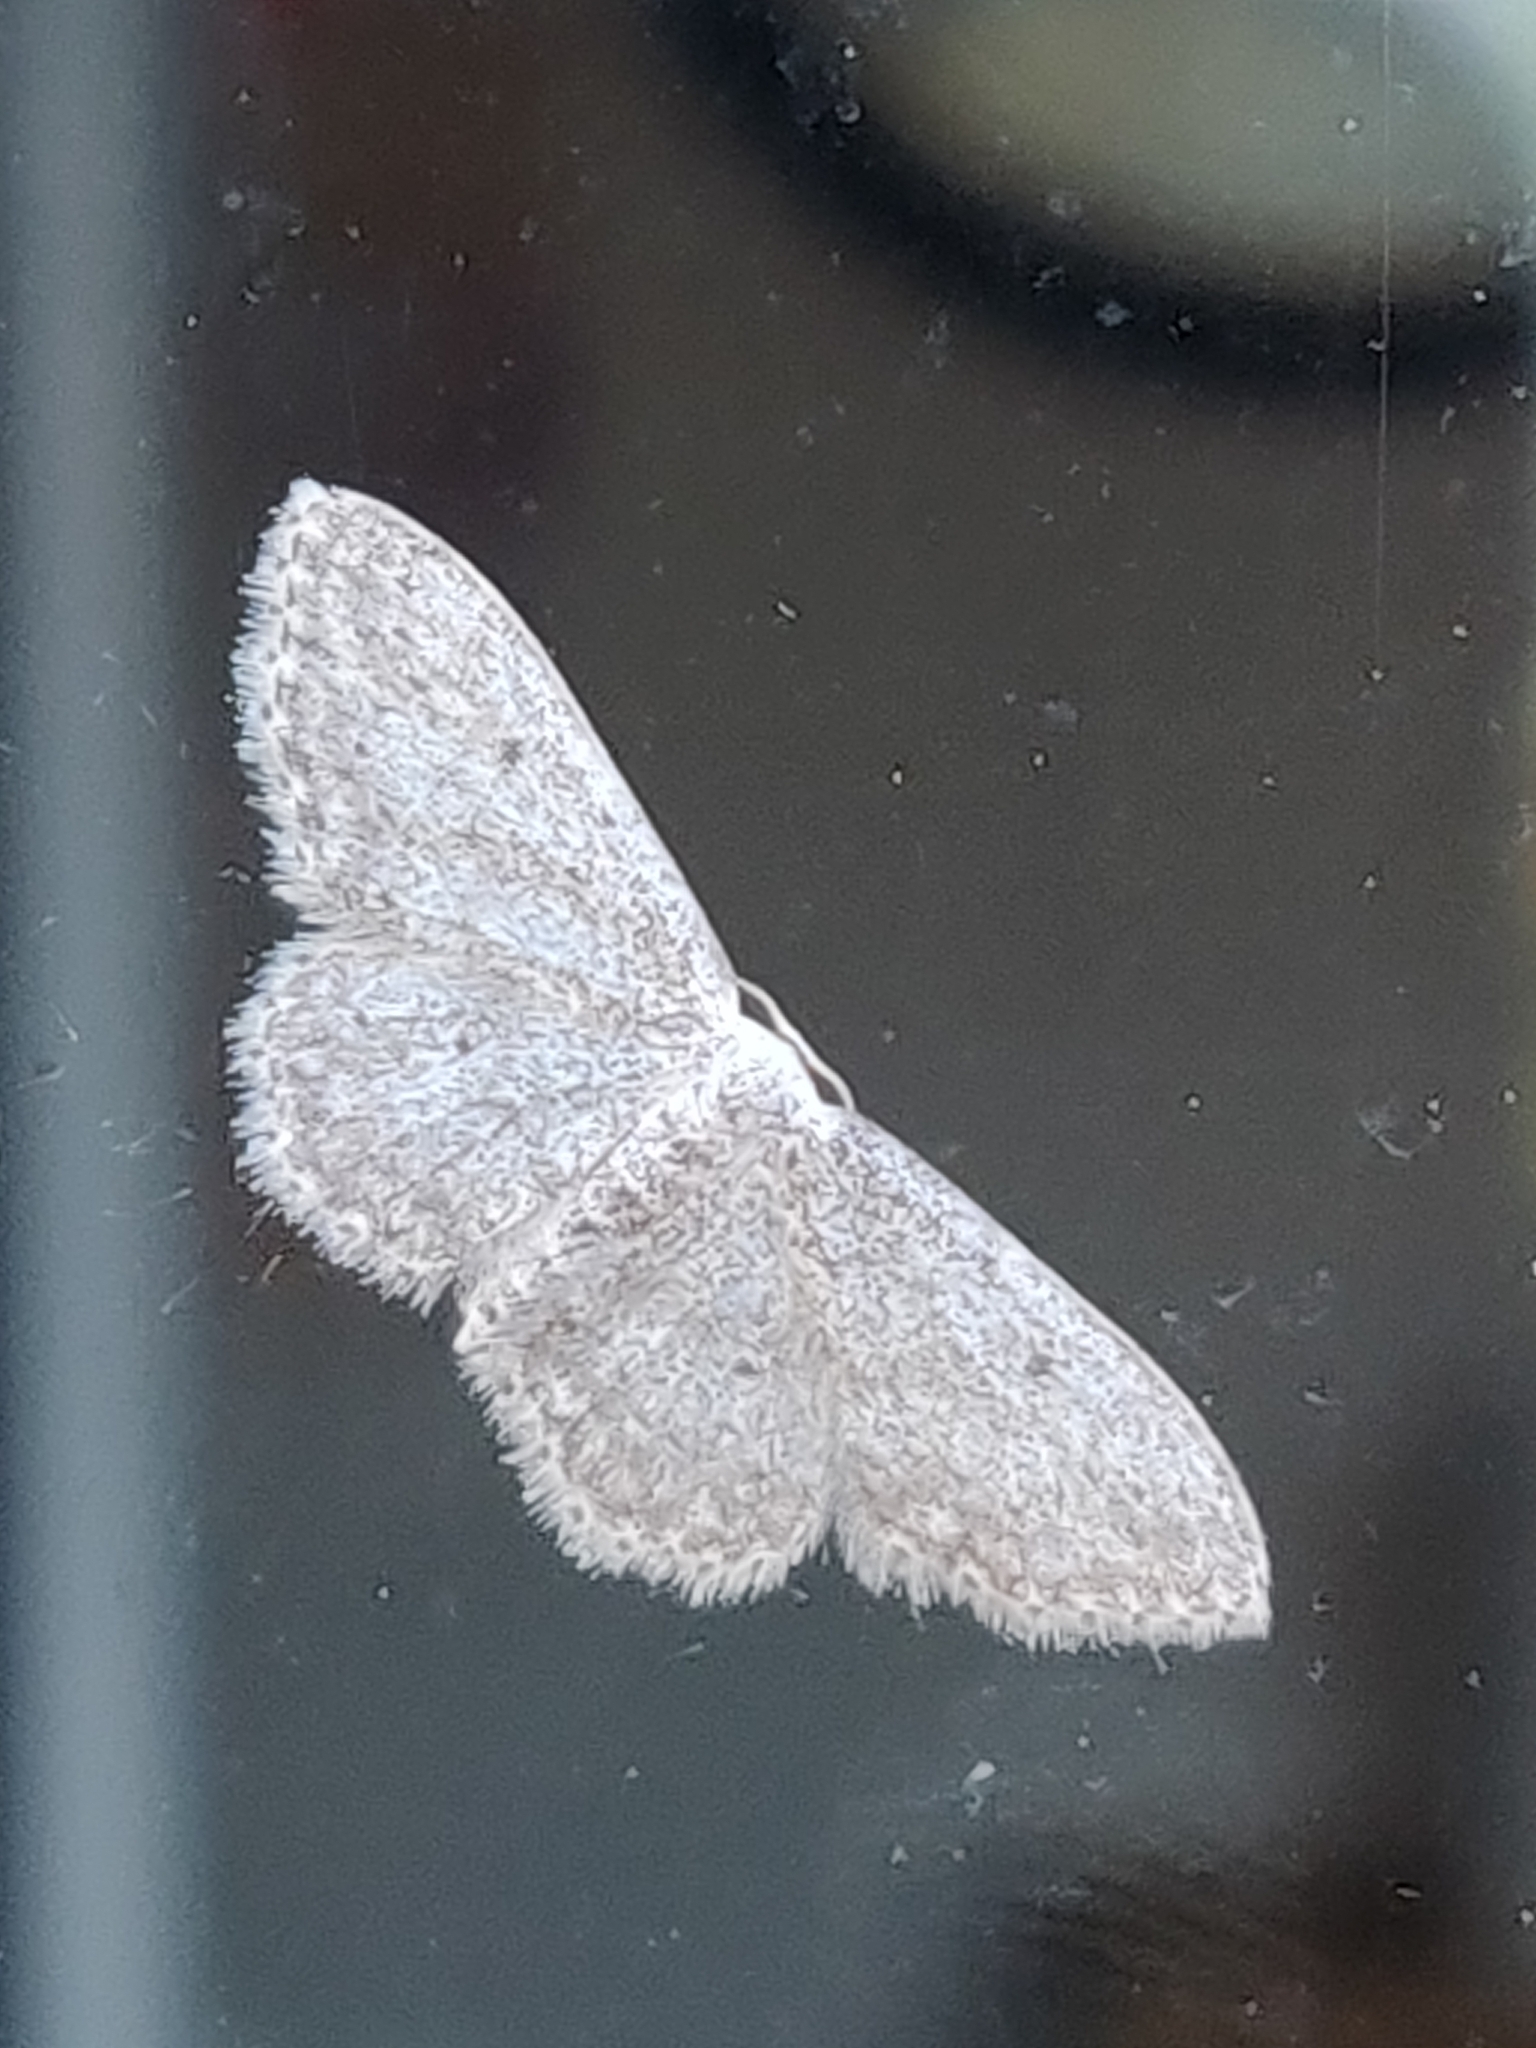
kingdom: Animalia
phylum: Arthropoda
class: Insecta
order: Lepidoptera
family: Geometridae
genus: Idaea
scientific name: Idaea seriata
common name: Small dusty wave
